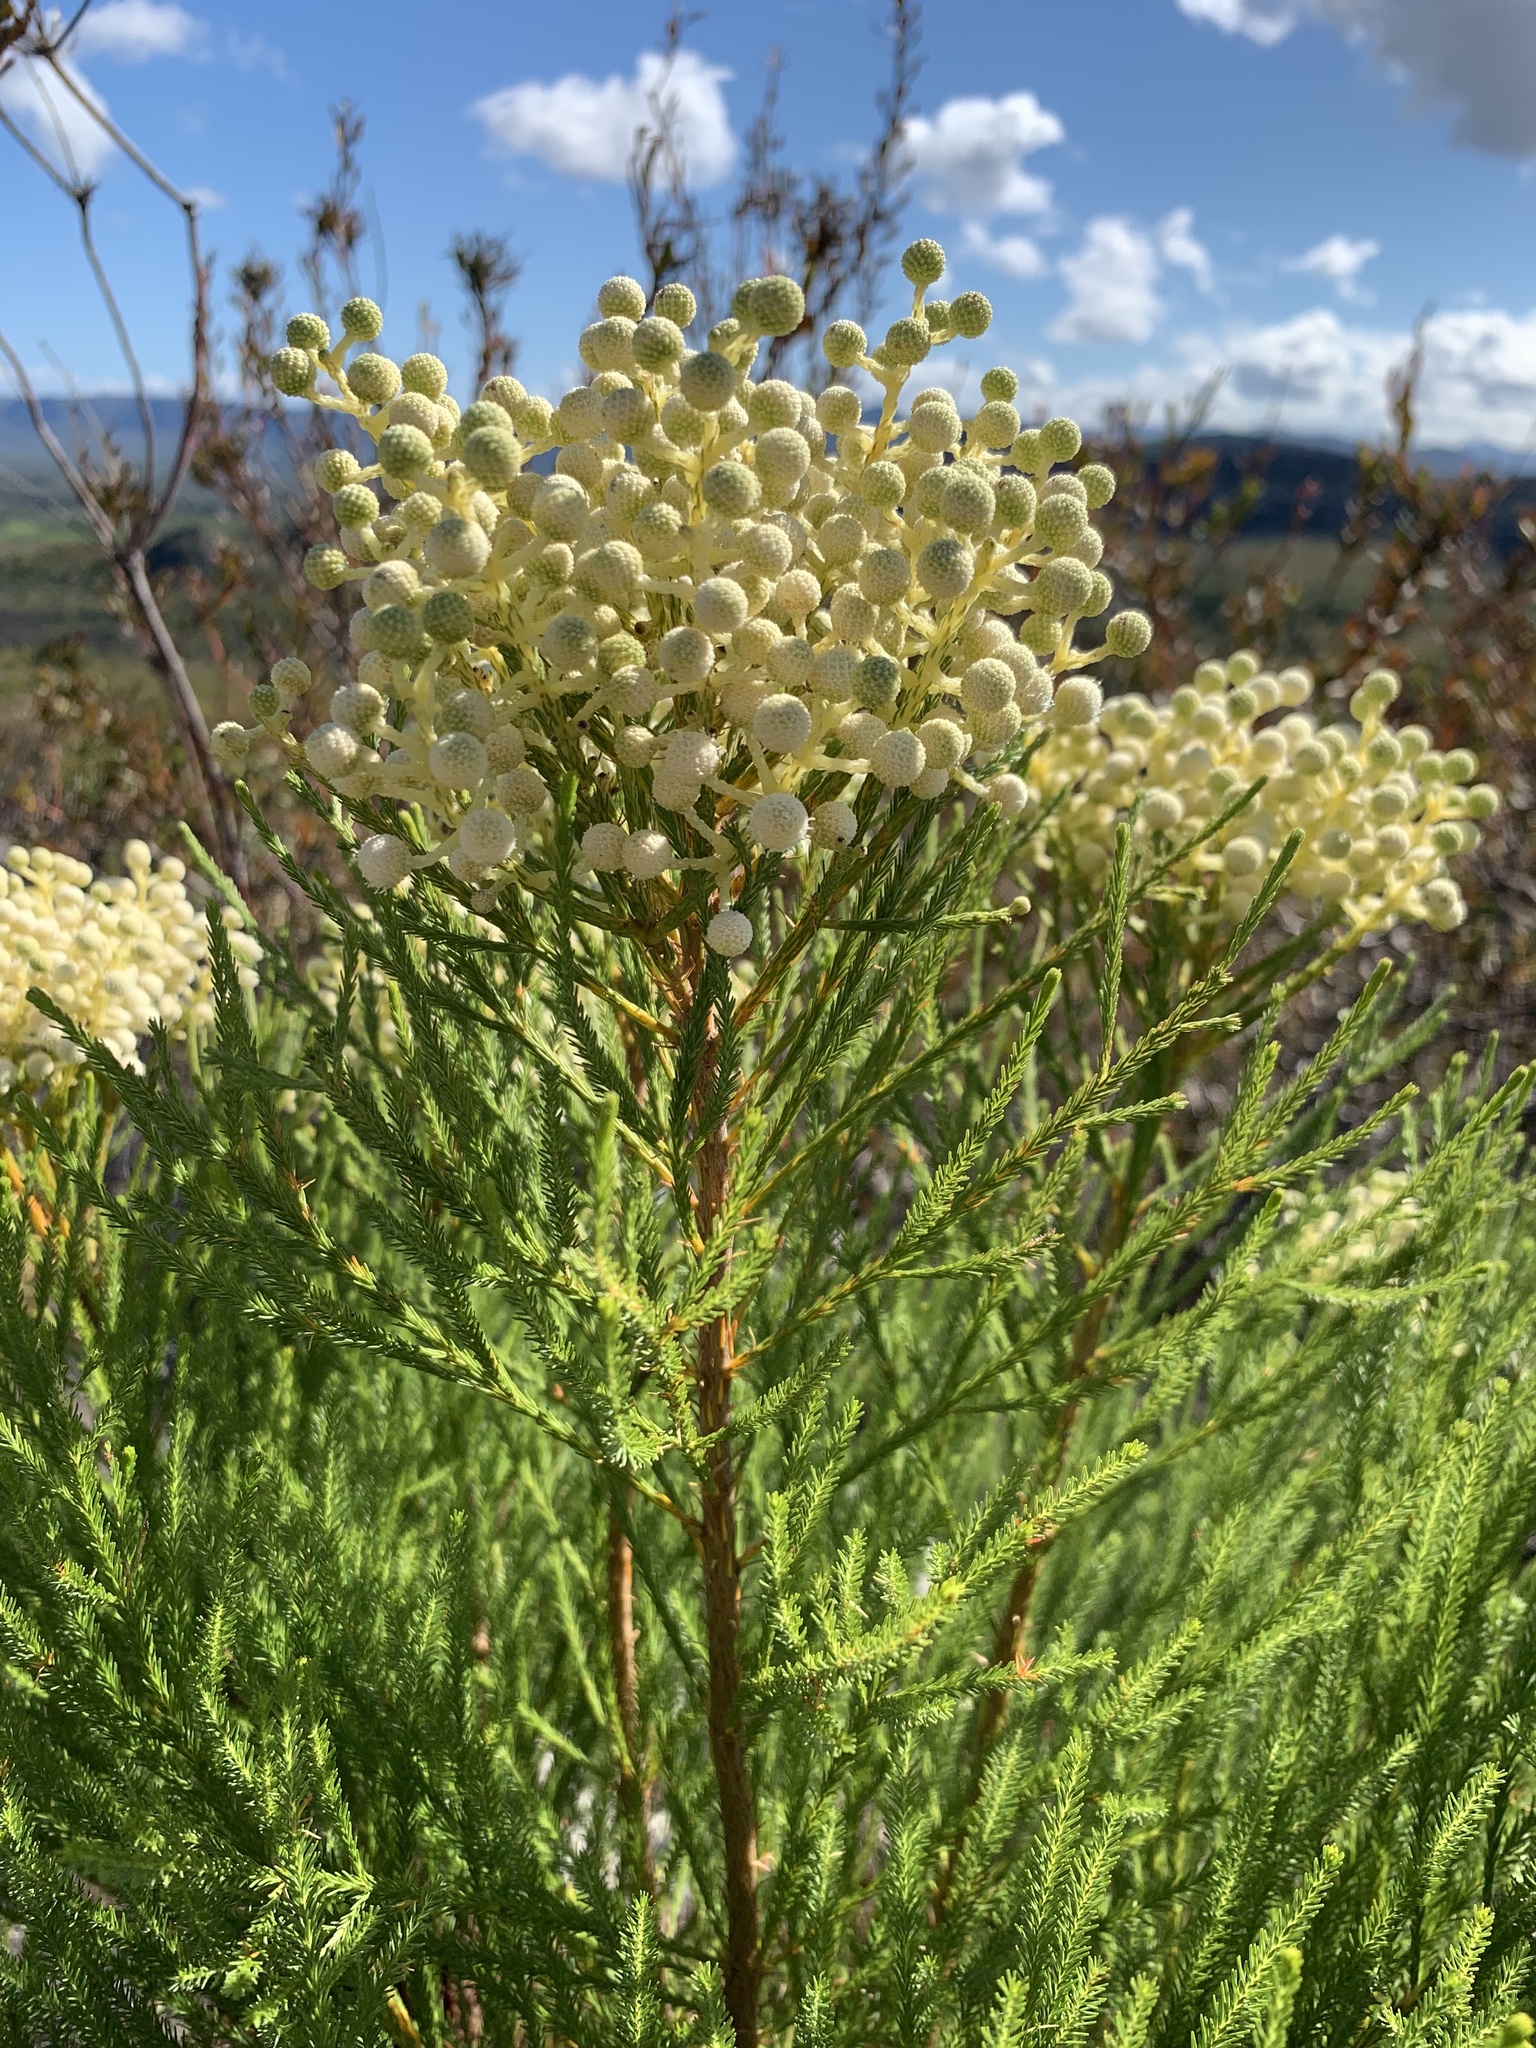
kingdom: Plantae
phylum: Tracheophyta
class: Magnoliopsida
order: Bruniales
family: Bruniaceae
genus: Berzelia
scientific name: Berzelia lanuginosa
